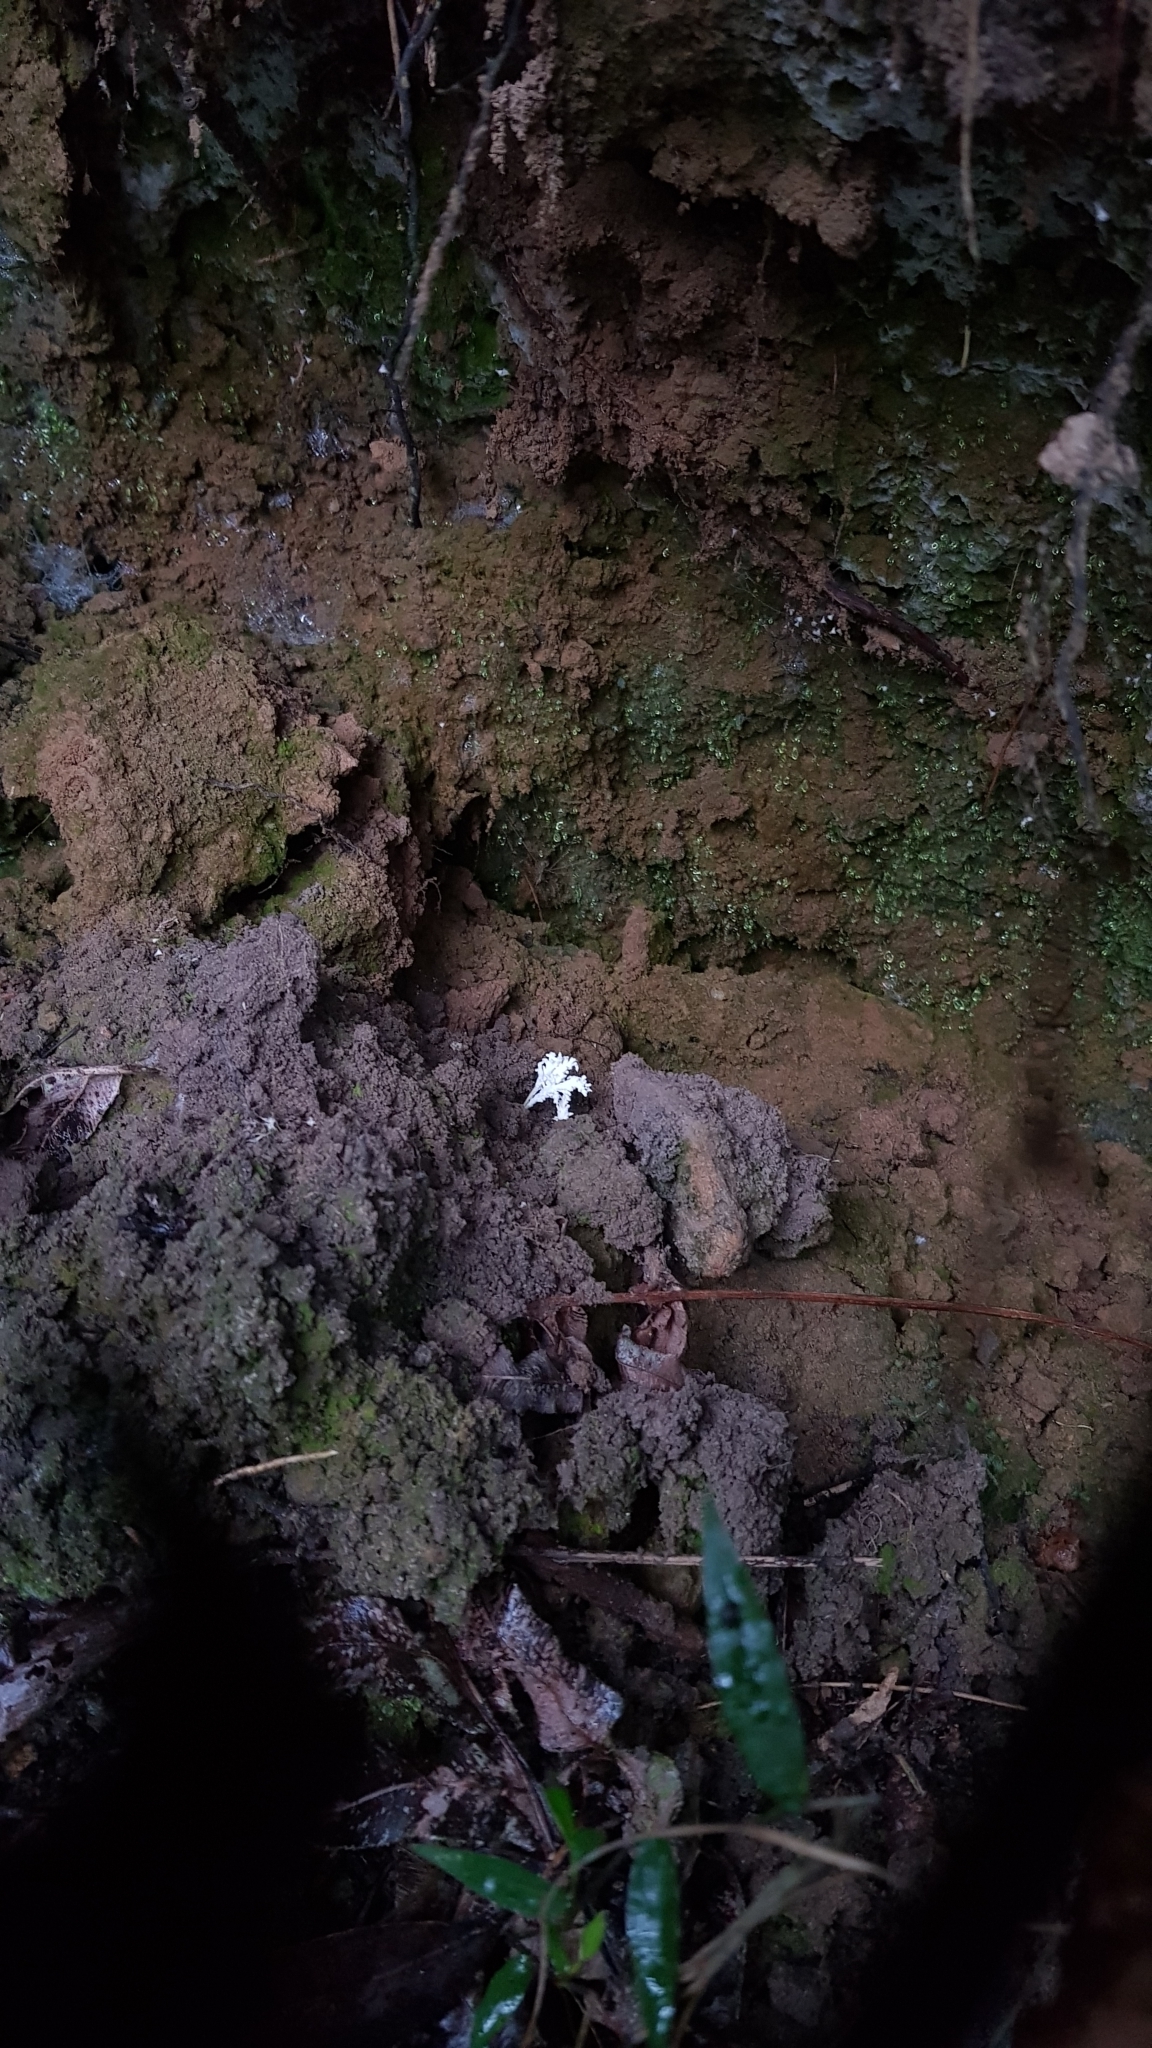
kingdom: Fungi
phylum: Ascomycota
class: Sordariomycetes
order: Hypocreales
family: Cordycipitaceae
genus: Cordyceps
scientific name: Cordyceps tenuipes
